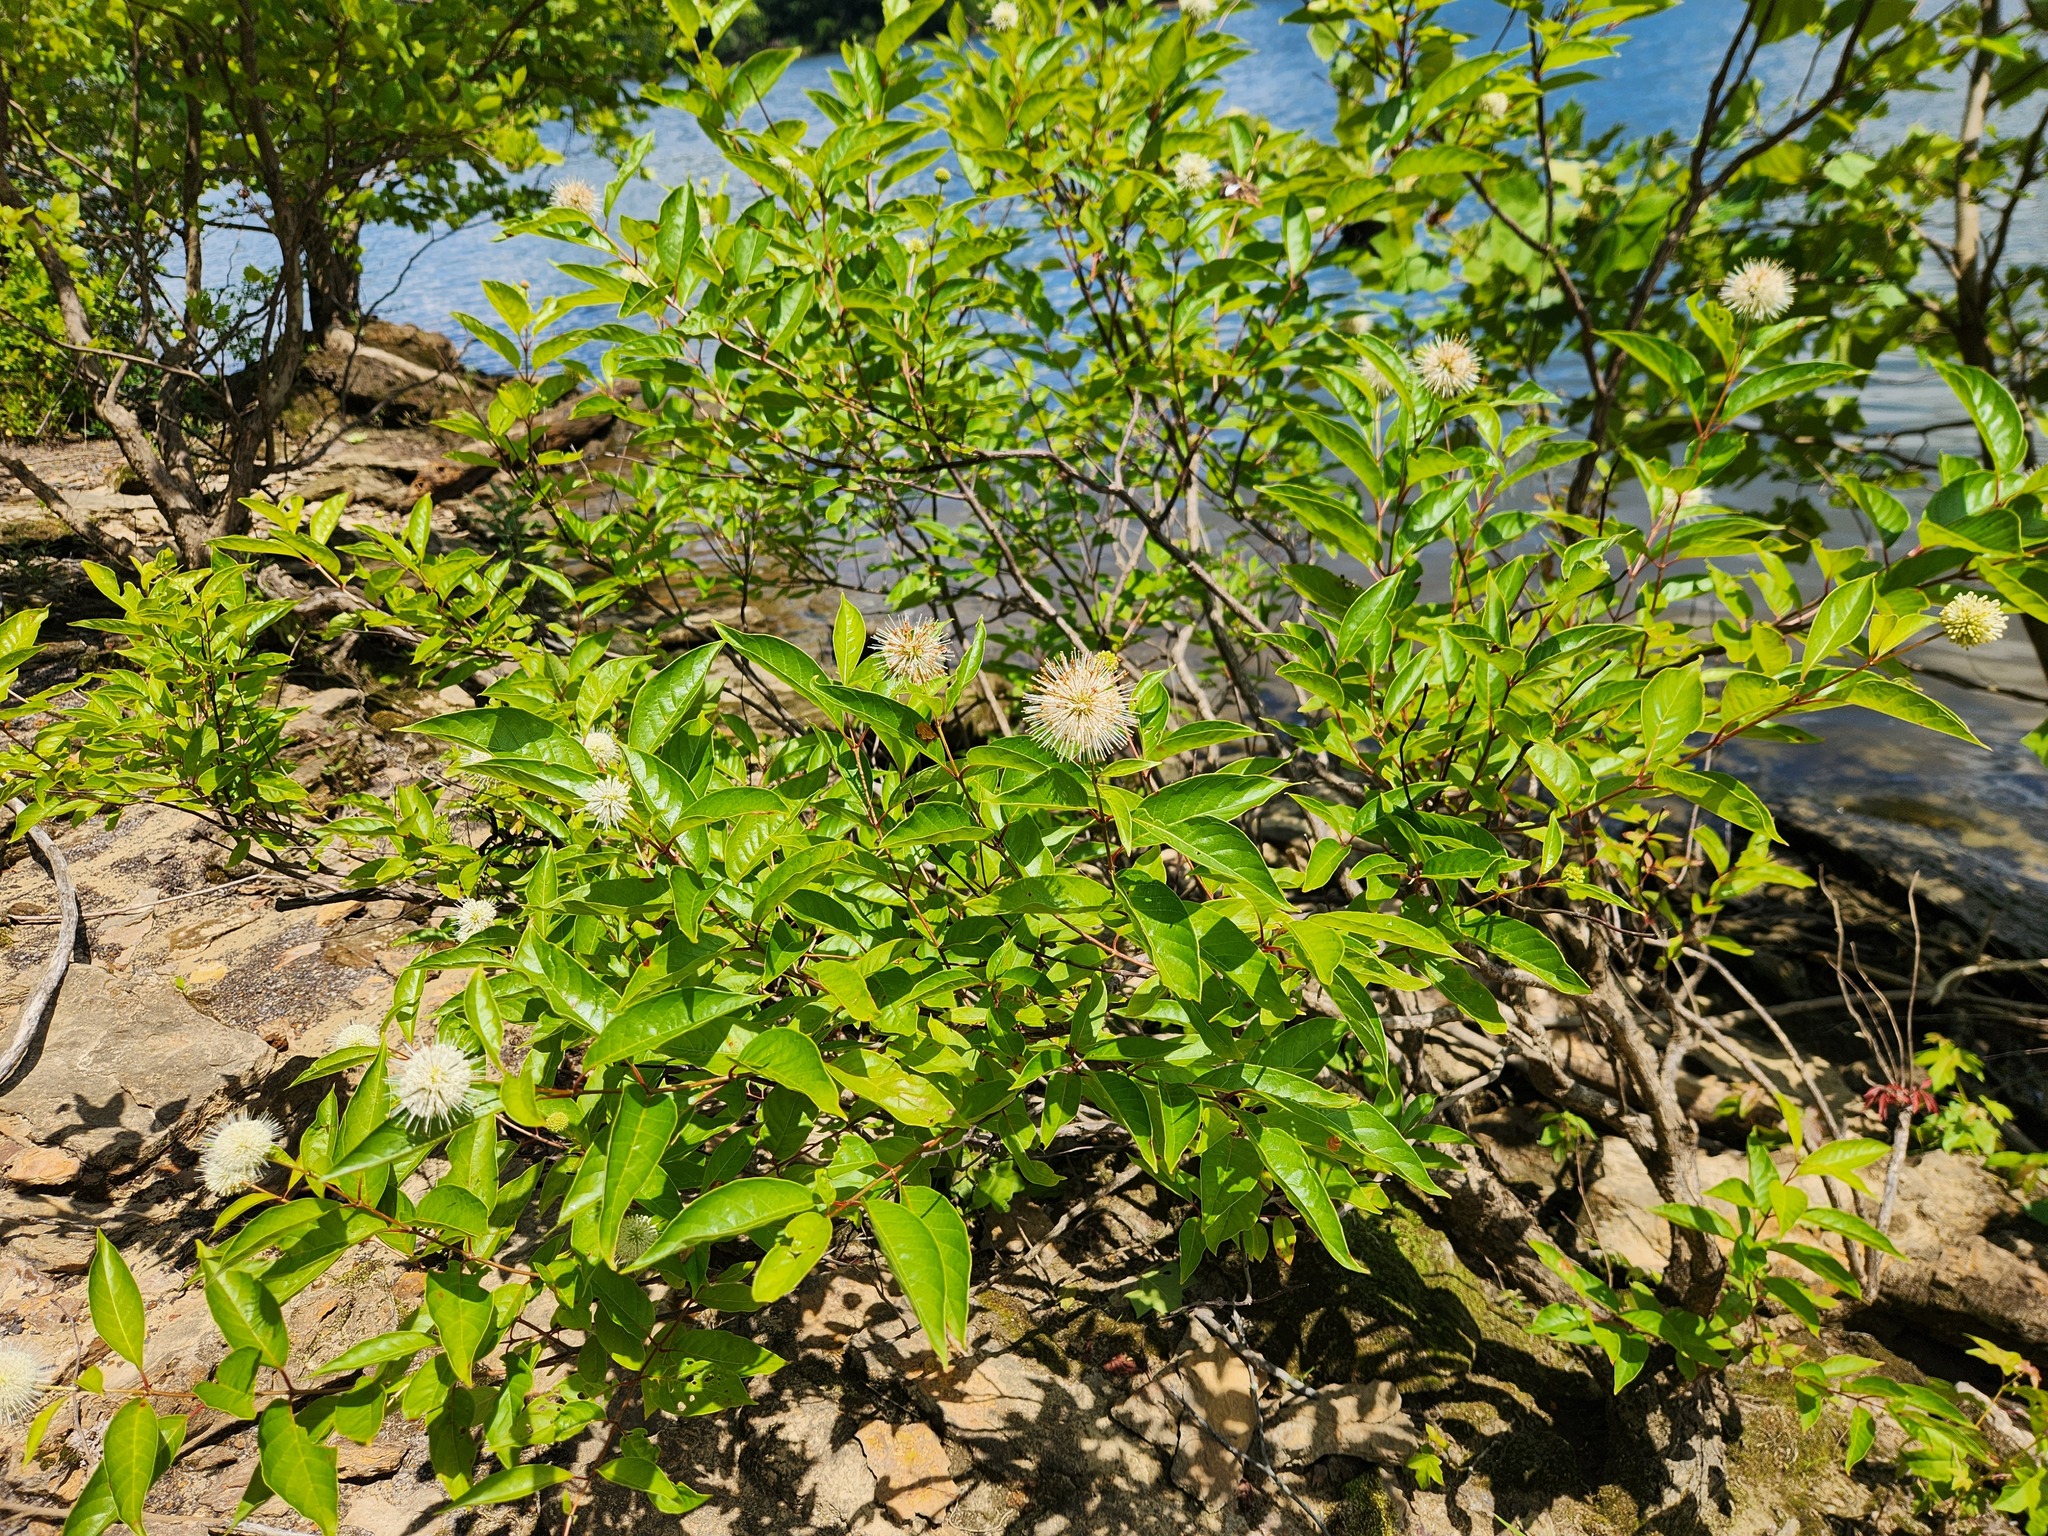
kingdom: Plantae
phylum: Tracheophyta
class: Magnoliopsida
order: Gentianales
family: Rubiaceae
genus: Cephalanthus
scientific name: Cephalanthus occidentalis
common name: Button-willow
